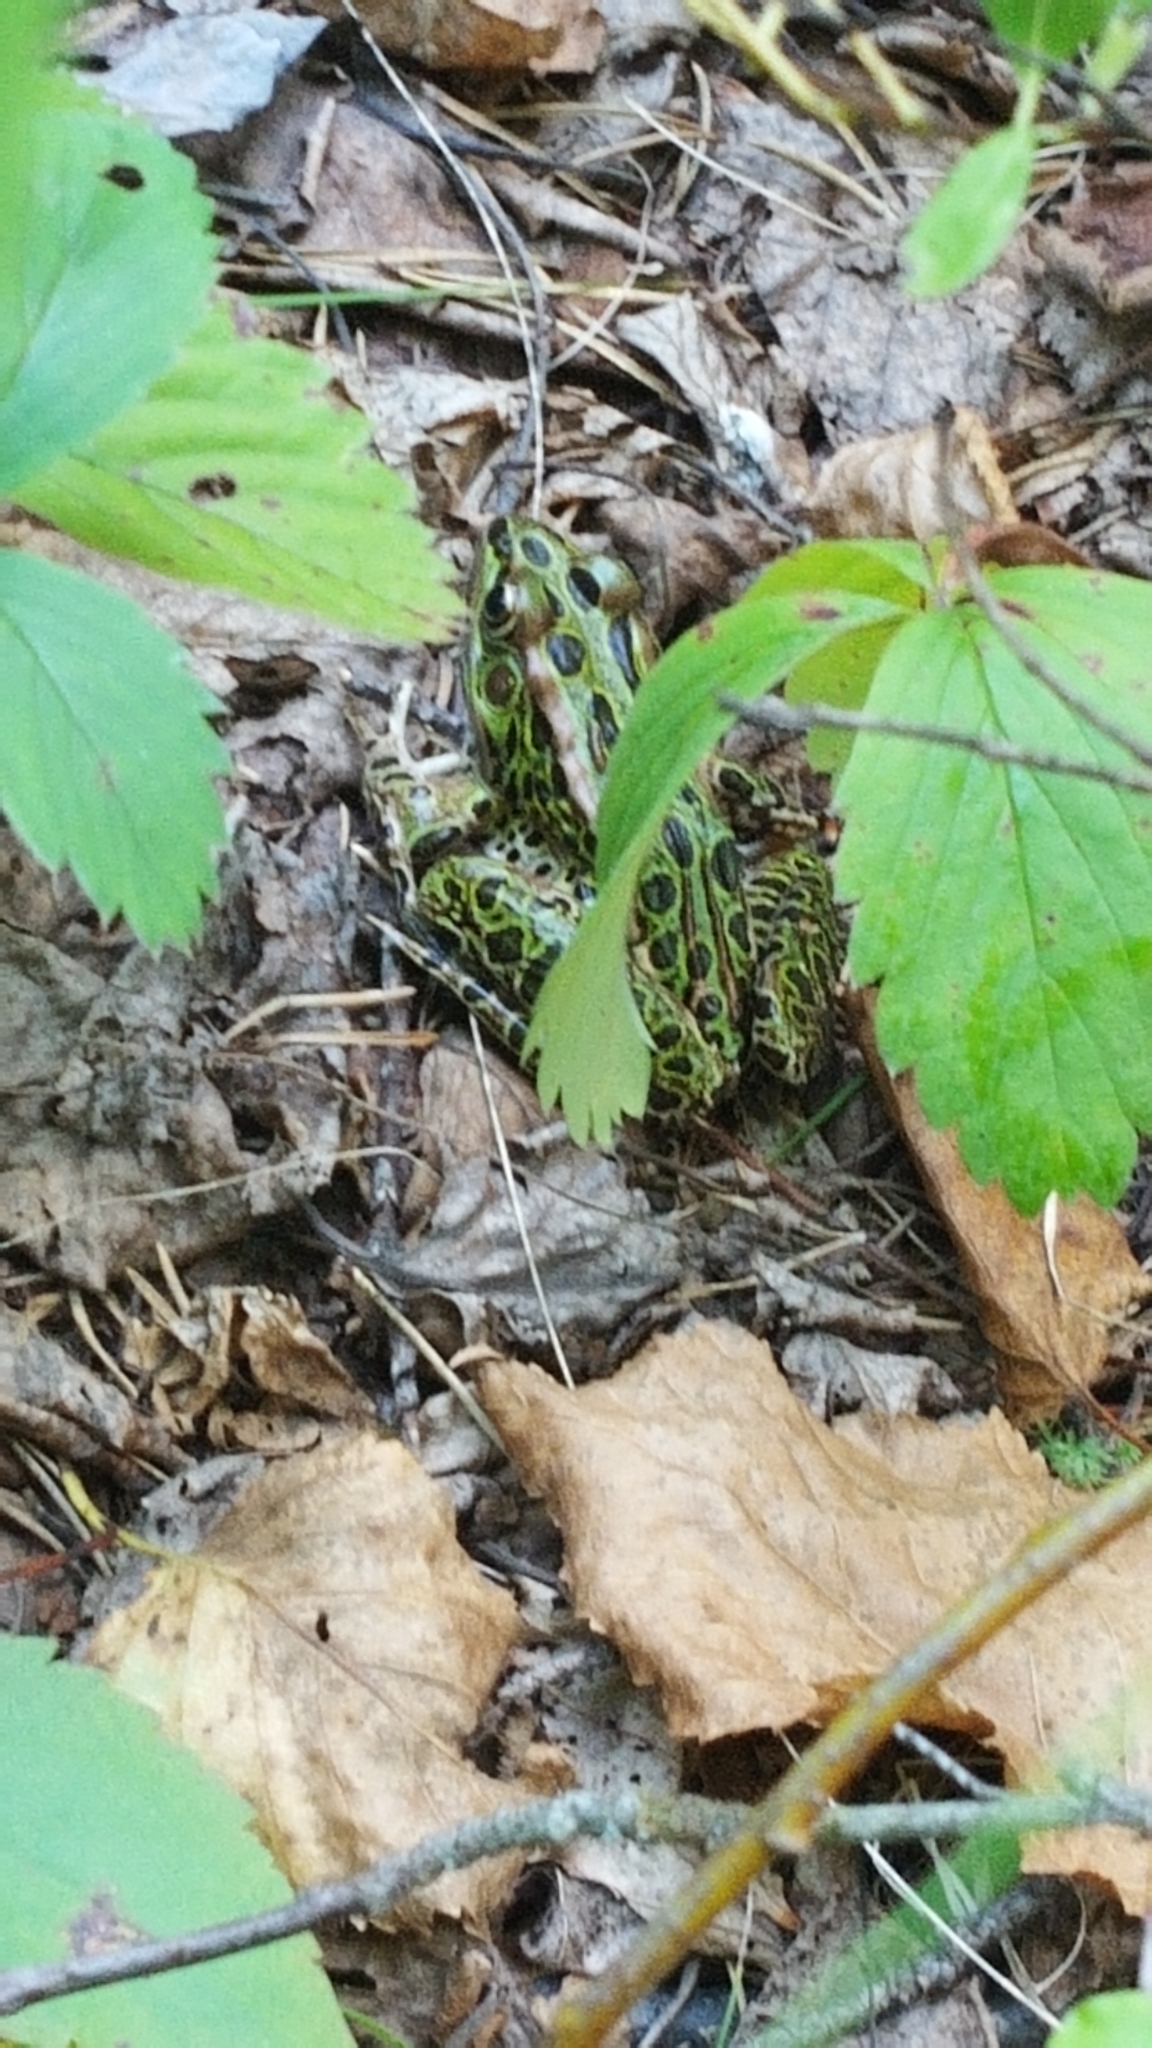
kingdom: Animalia
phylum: Chordata
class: Amphibia
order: Anura
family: Ranidae
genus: Lithobates
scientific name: Lithobates pipiens
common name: Northern leopard frog
